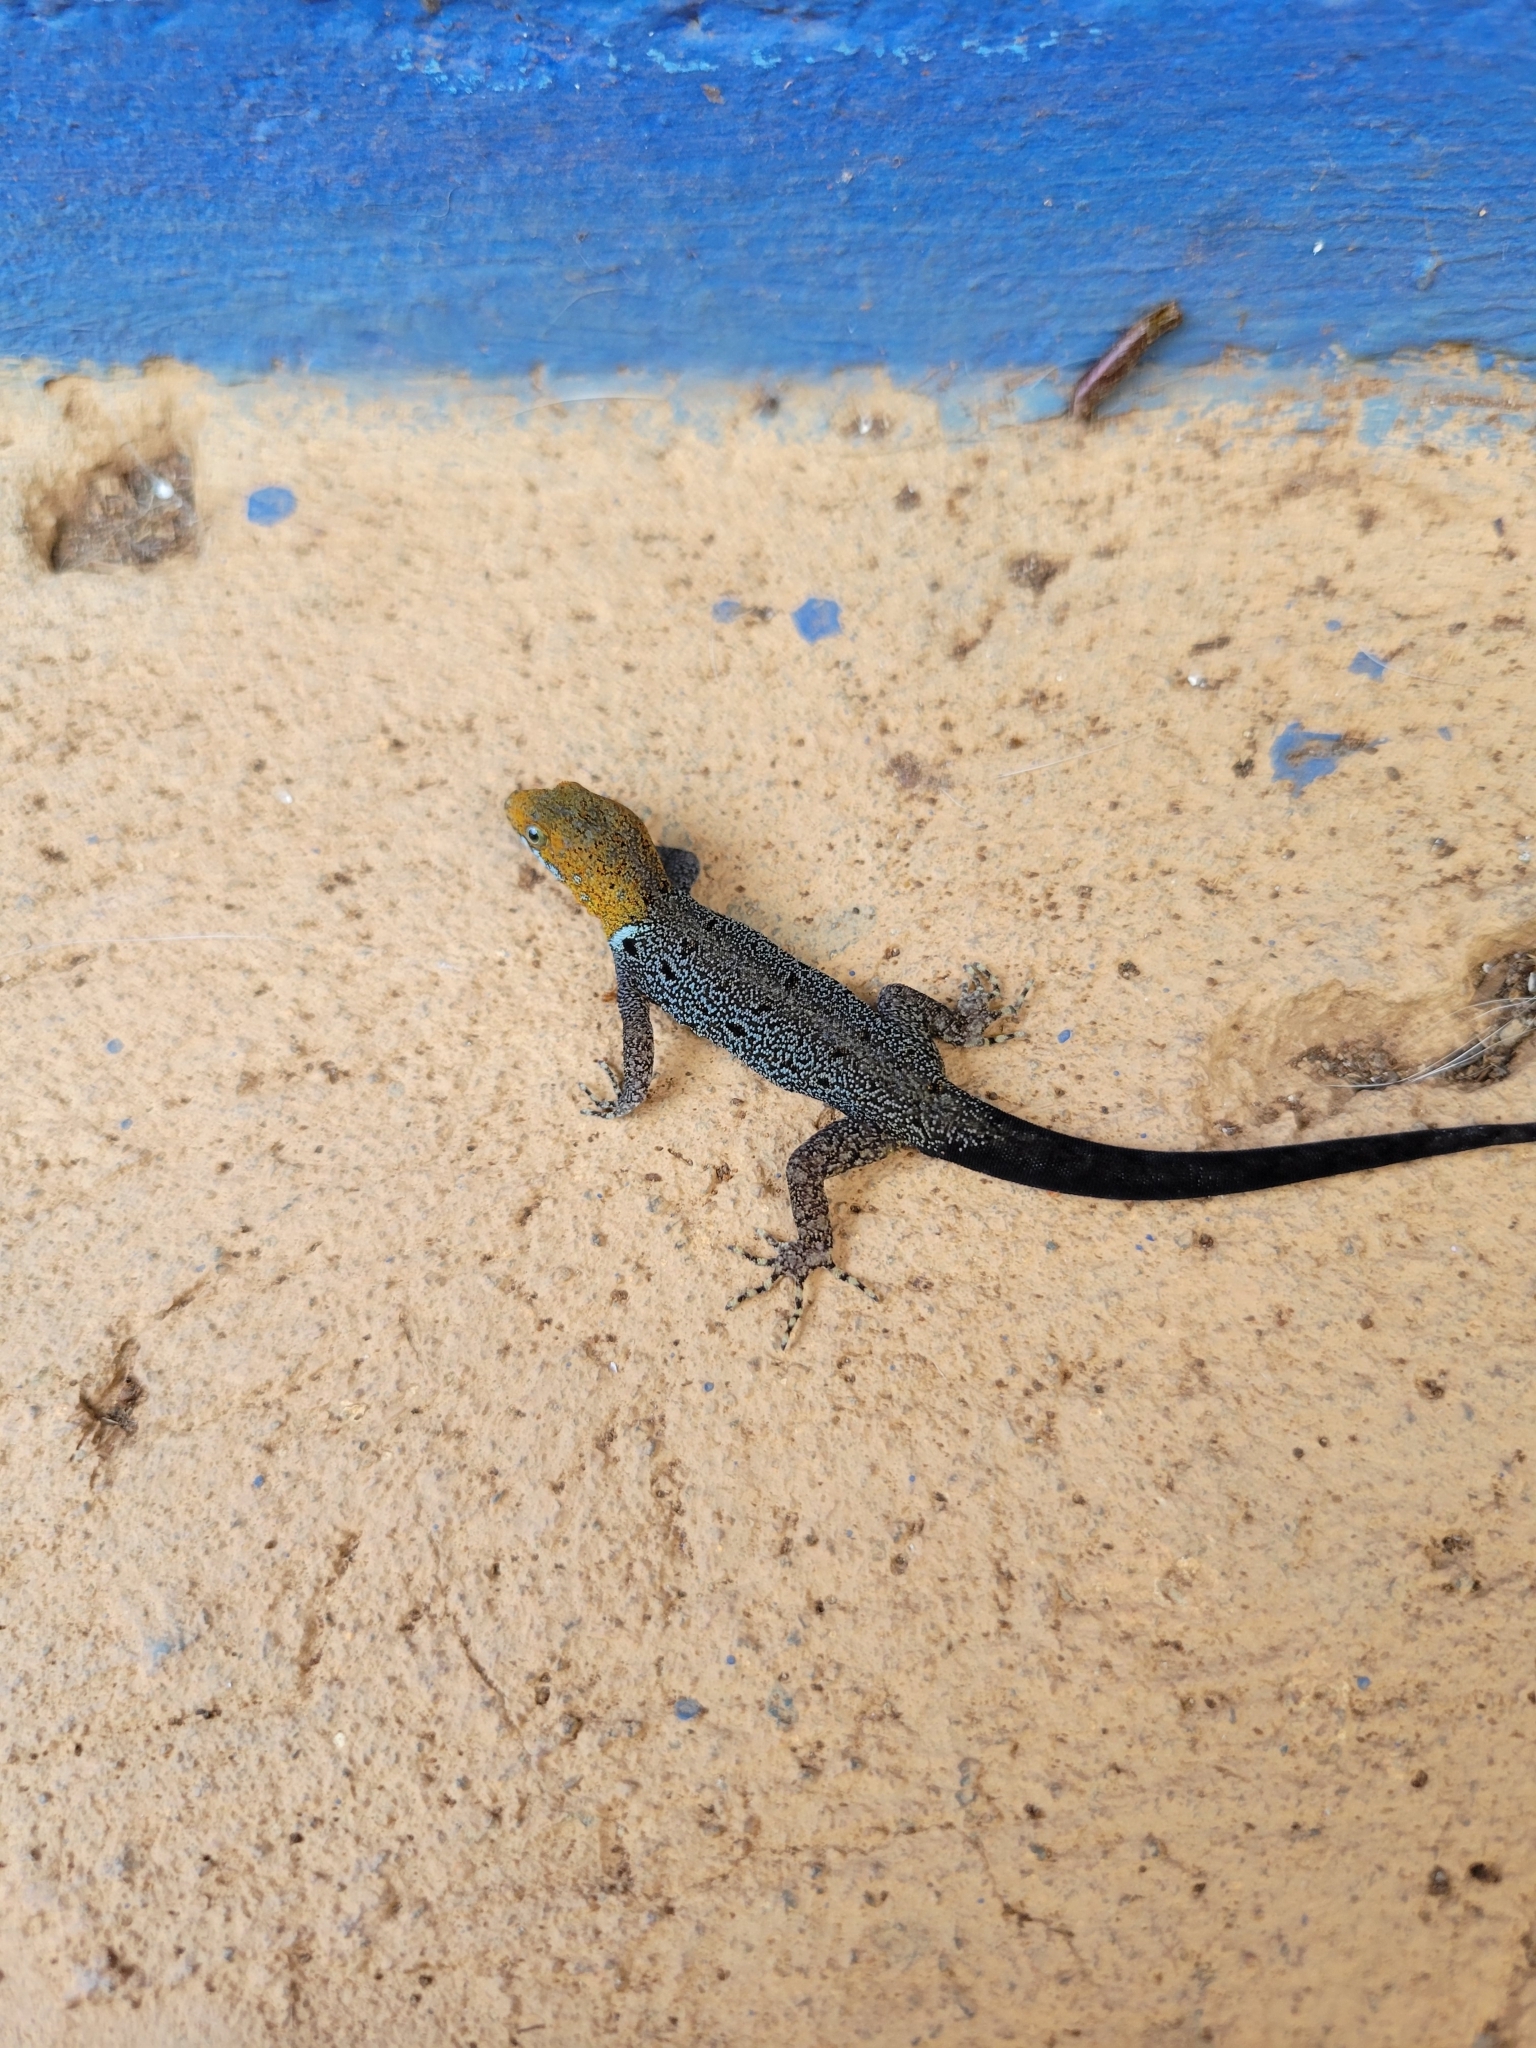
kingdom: Animalia
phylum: Chordata
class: Squamata
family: Sphaerodactylidae
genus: Gonatodes
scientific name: Gonatodes albogularis
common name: Yellow-headed gecko
